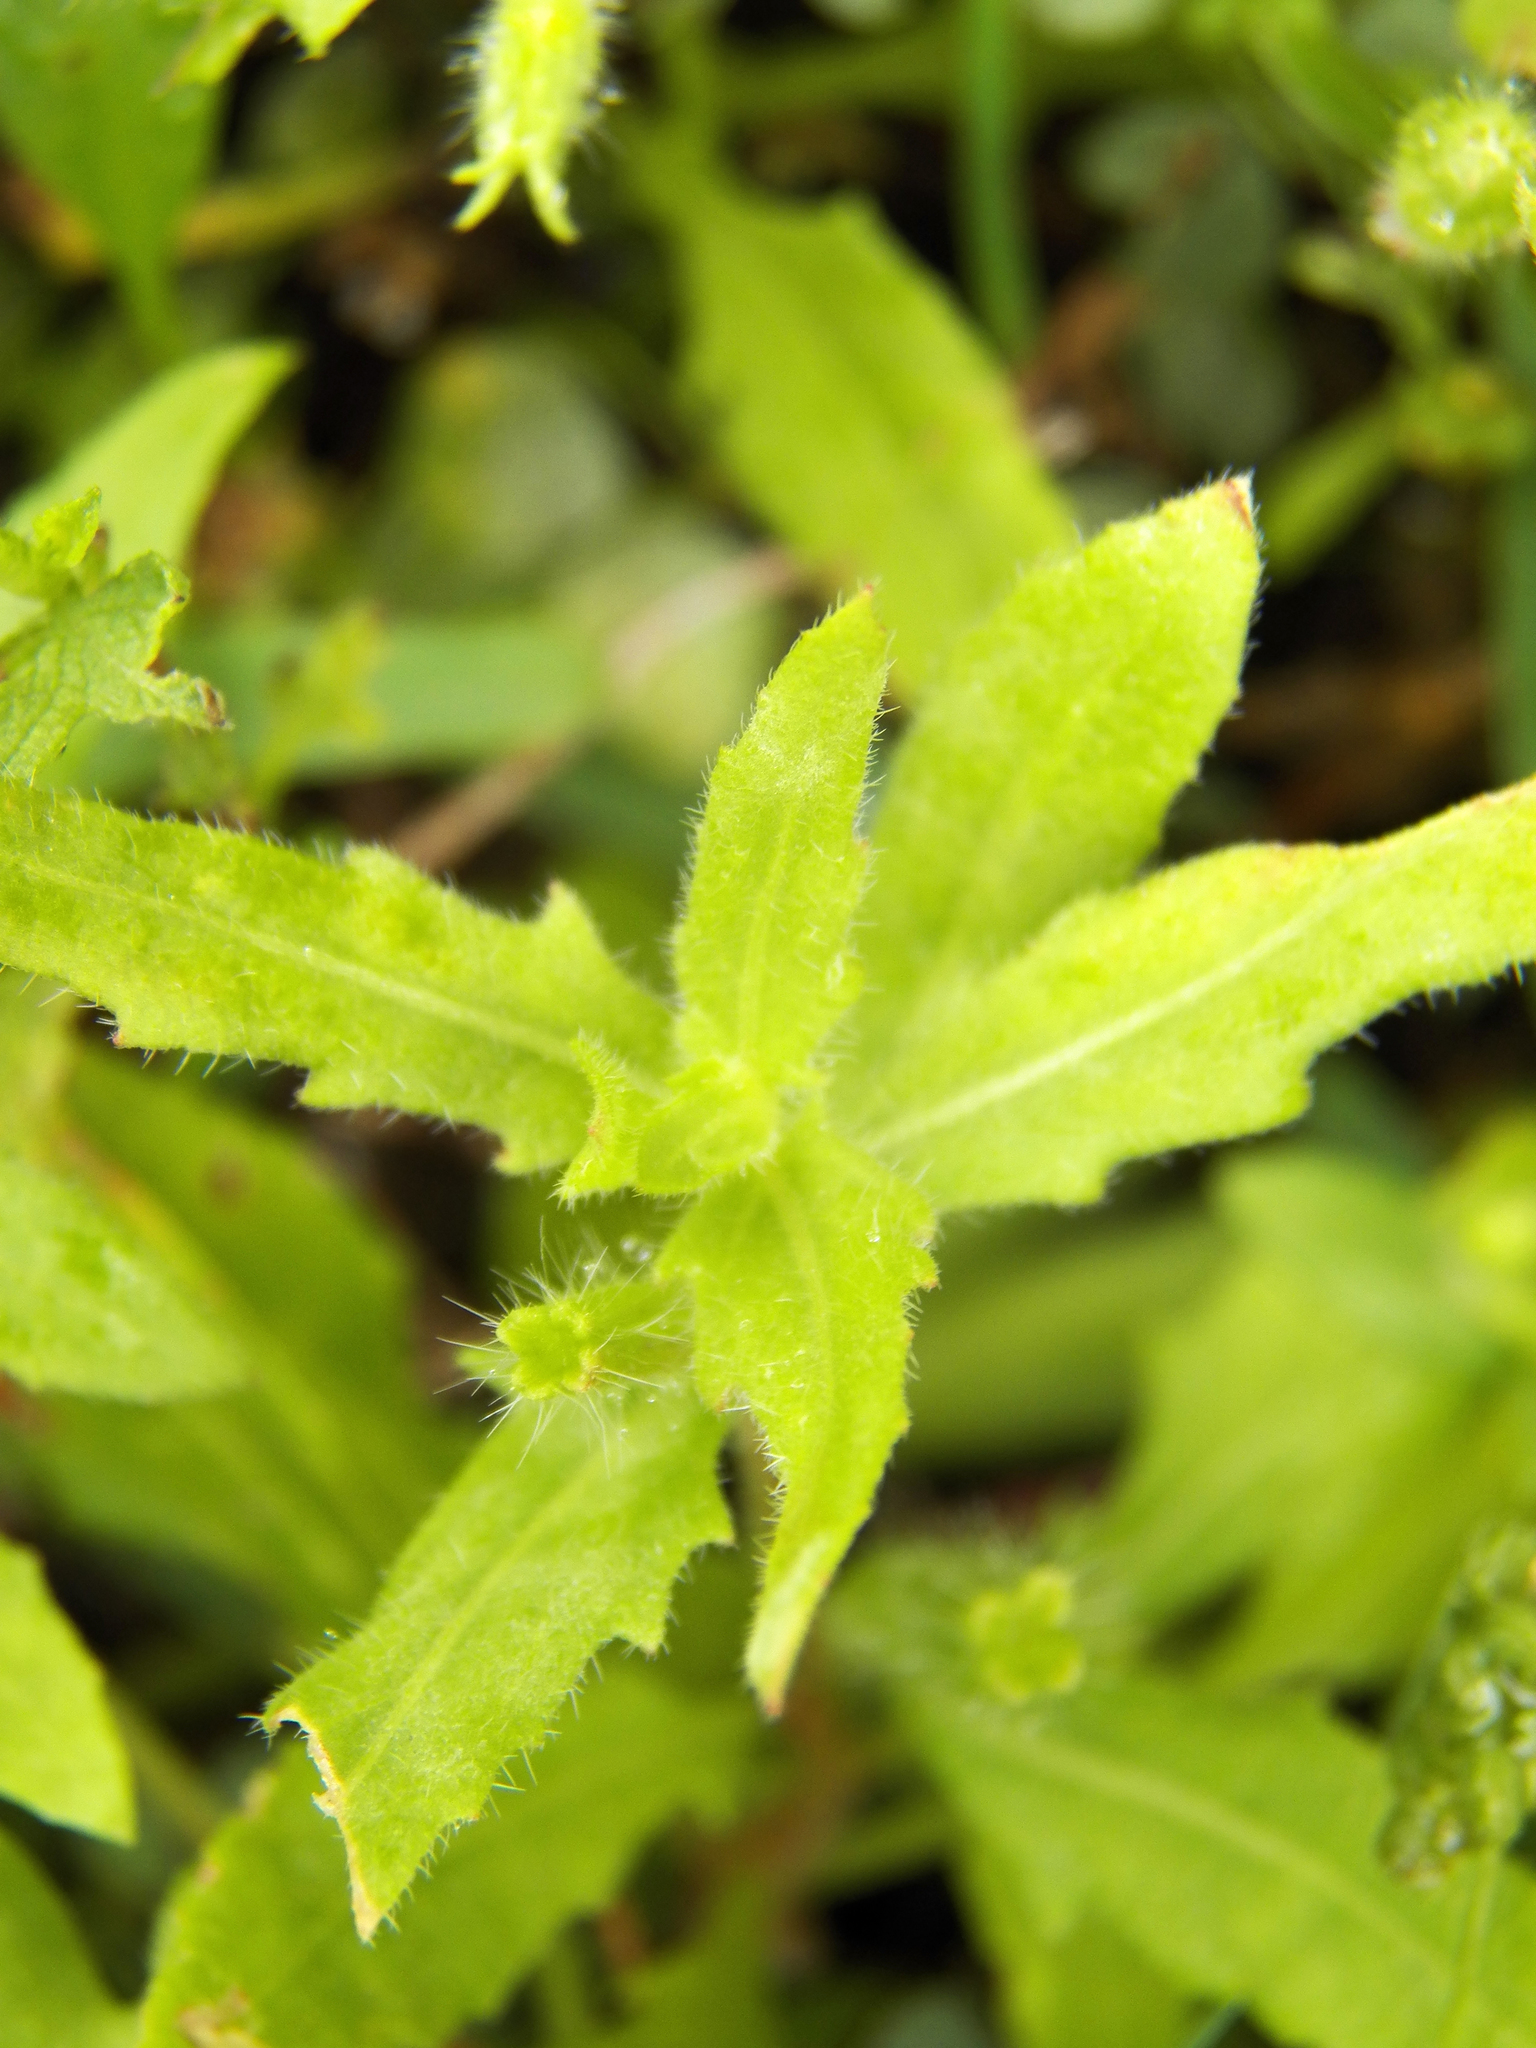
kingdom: Plantae
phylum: Tracheophyta
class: Magnoliopsida
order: Myrtales
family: Onagraceae
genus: Oenothera
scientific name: Oenothera laciniata
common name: Cut-leaved evening-primrose
